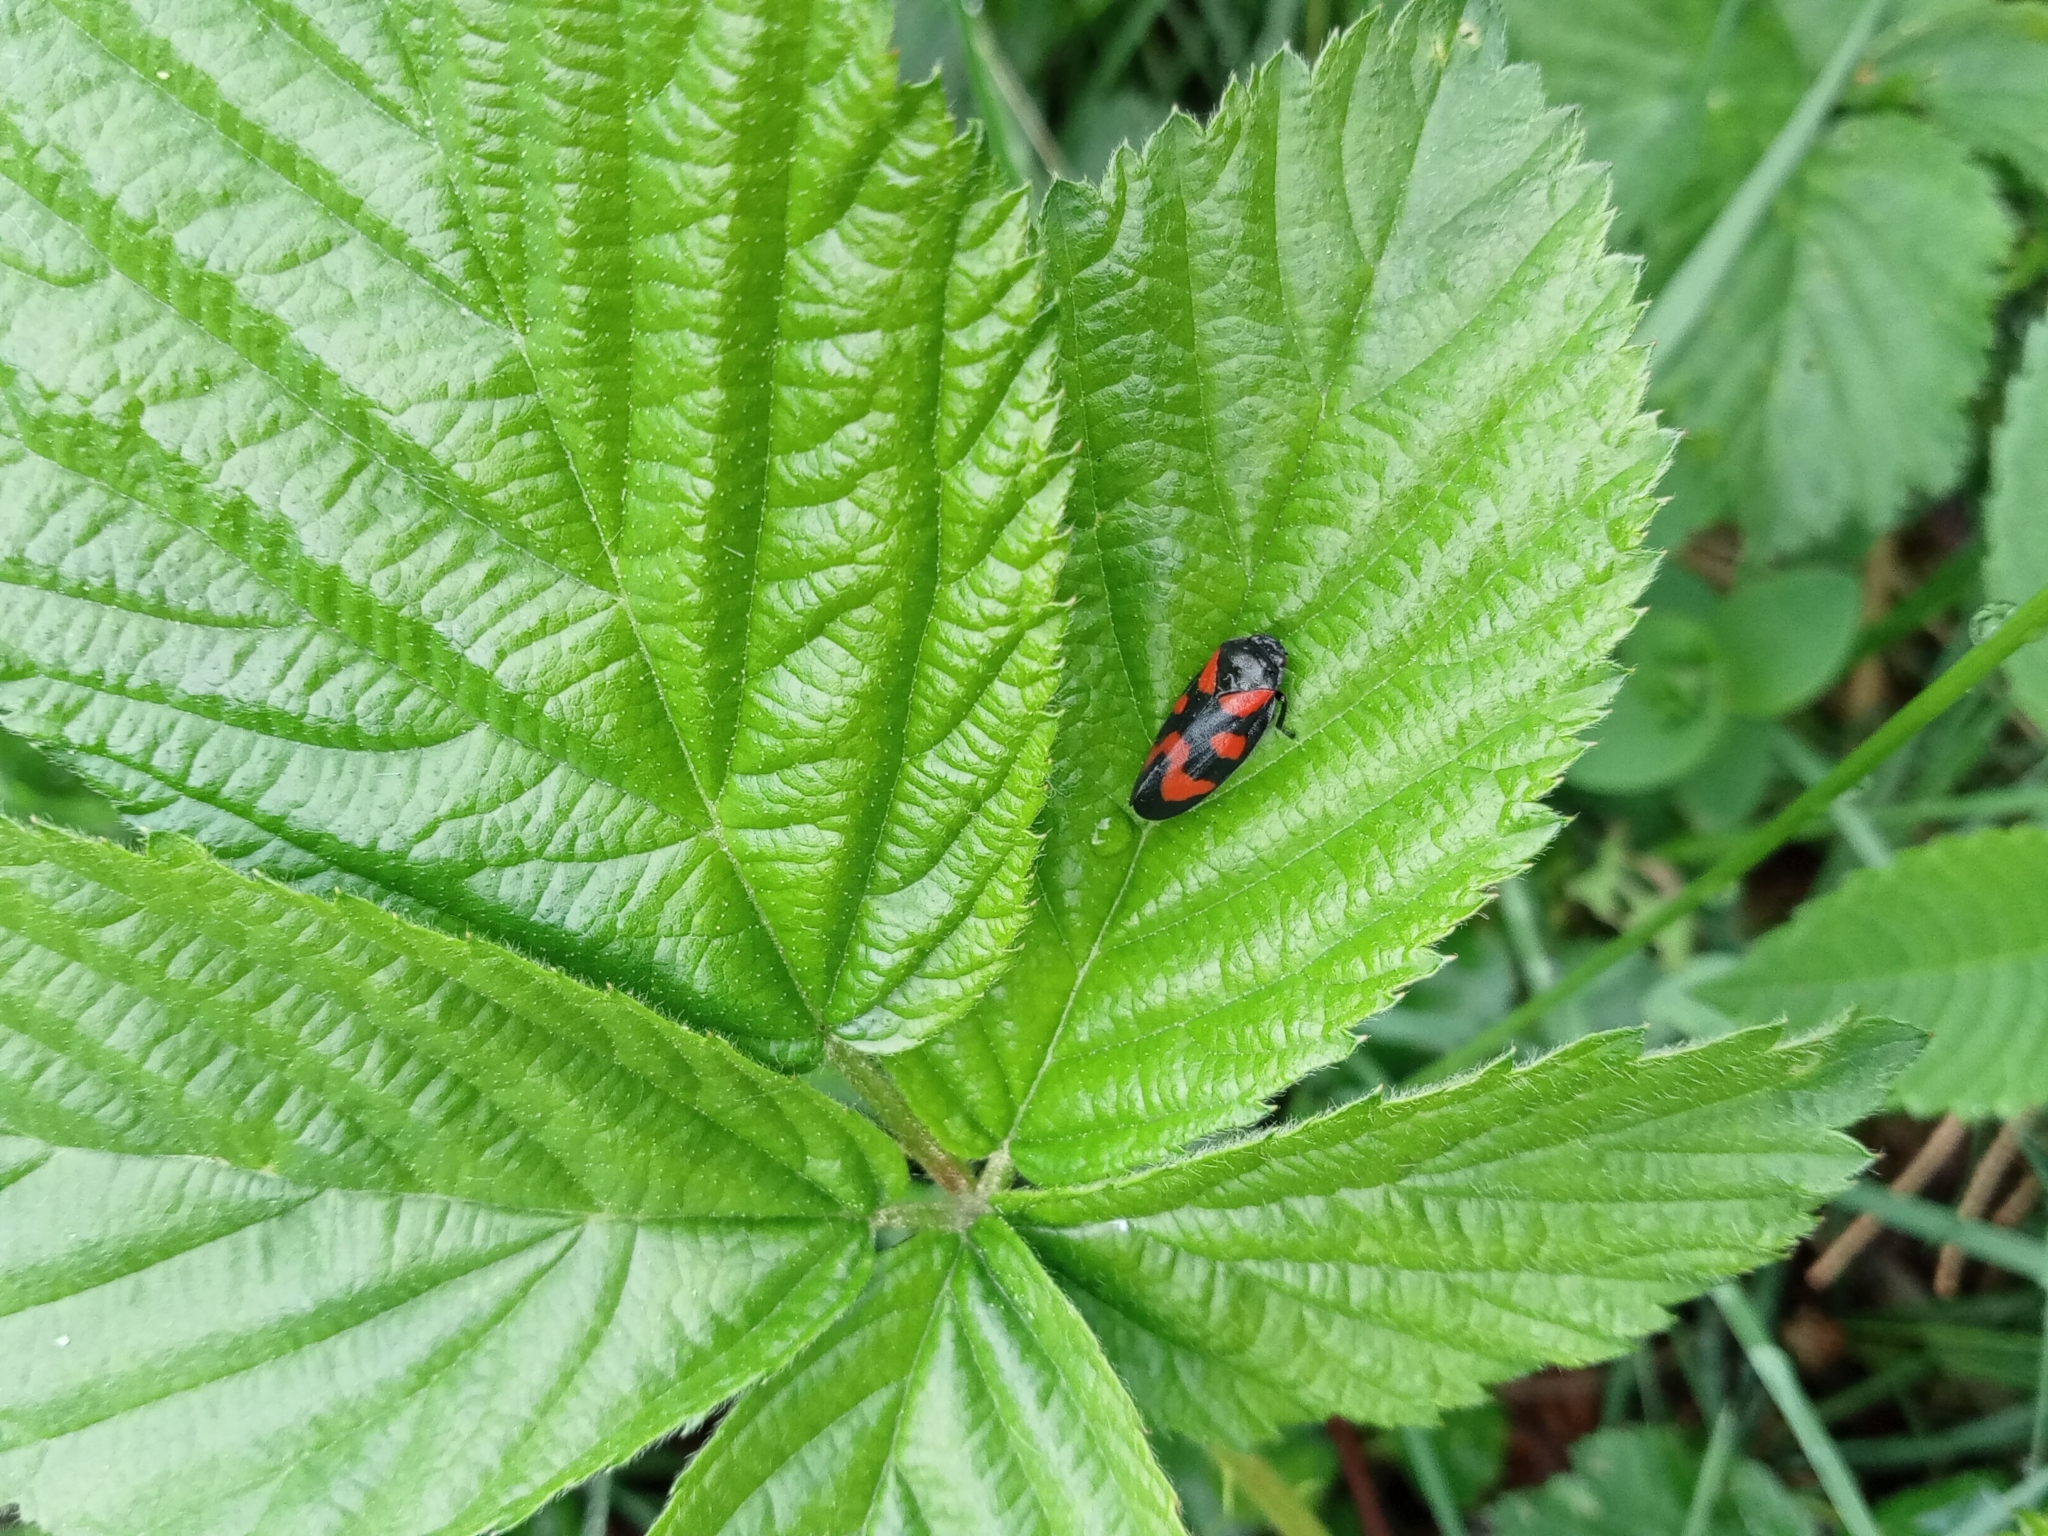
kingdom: Animalia
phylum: Arthropoda
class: Insecta
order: Hemiptera
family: Cercopidae
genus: Cercopis
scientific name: Cercopis vulnerata
